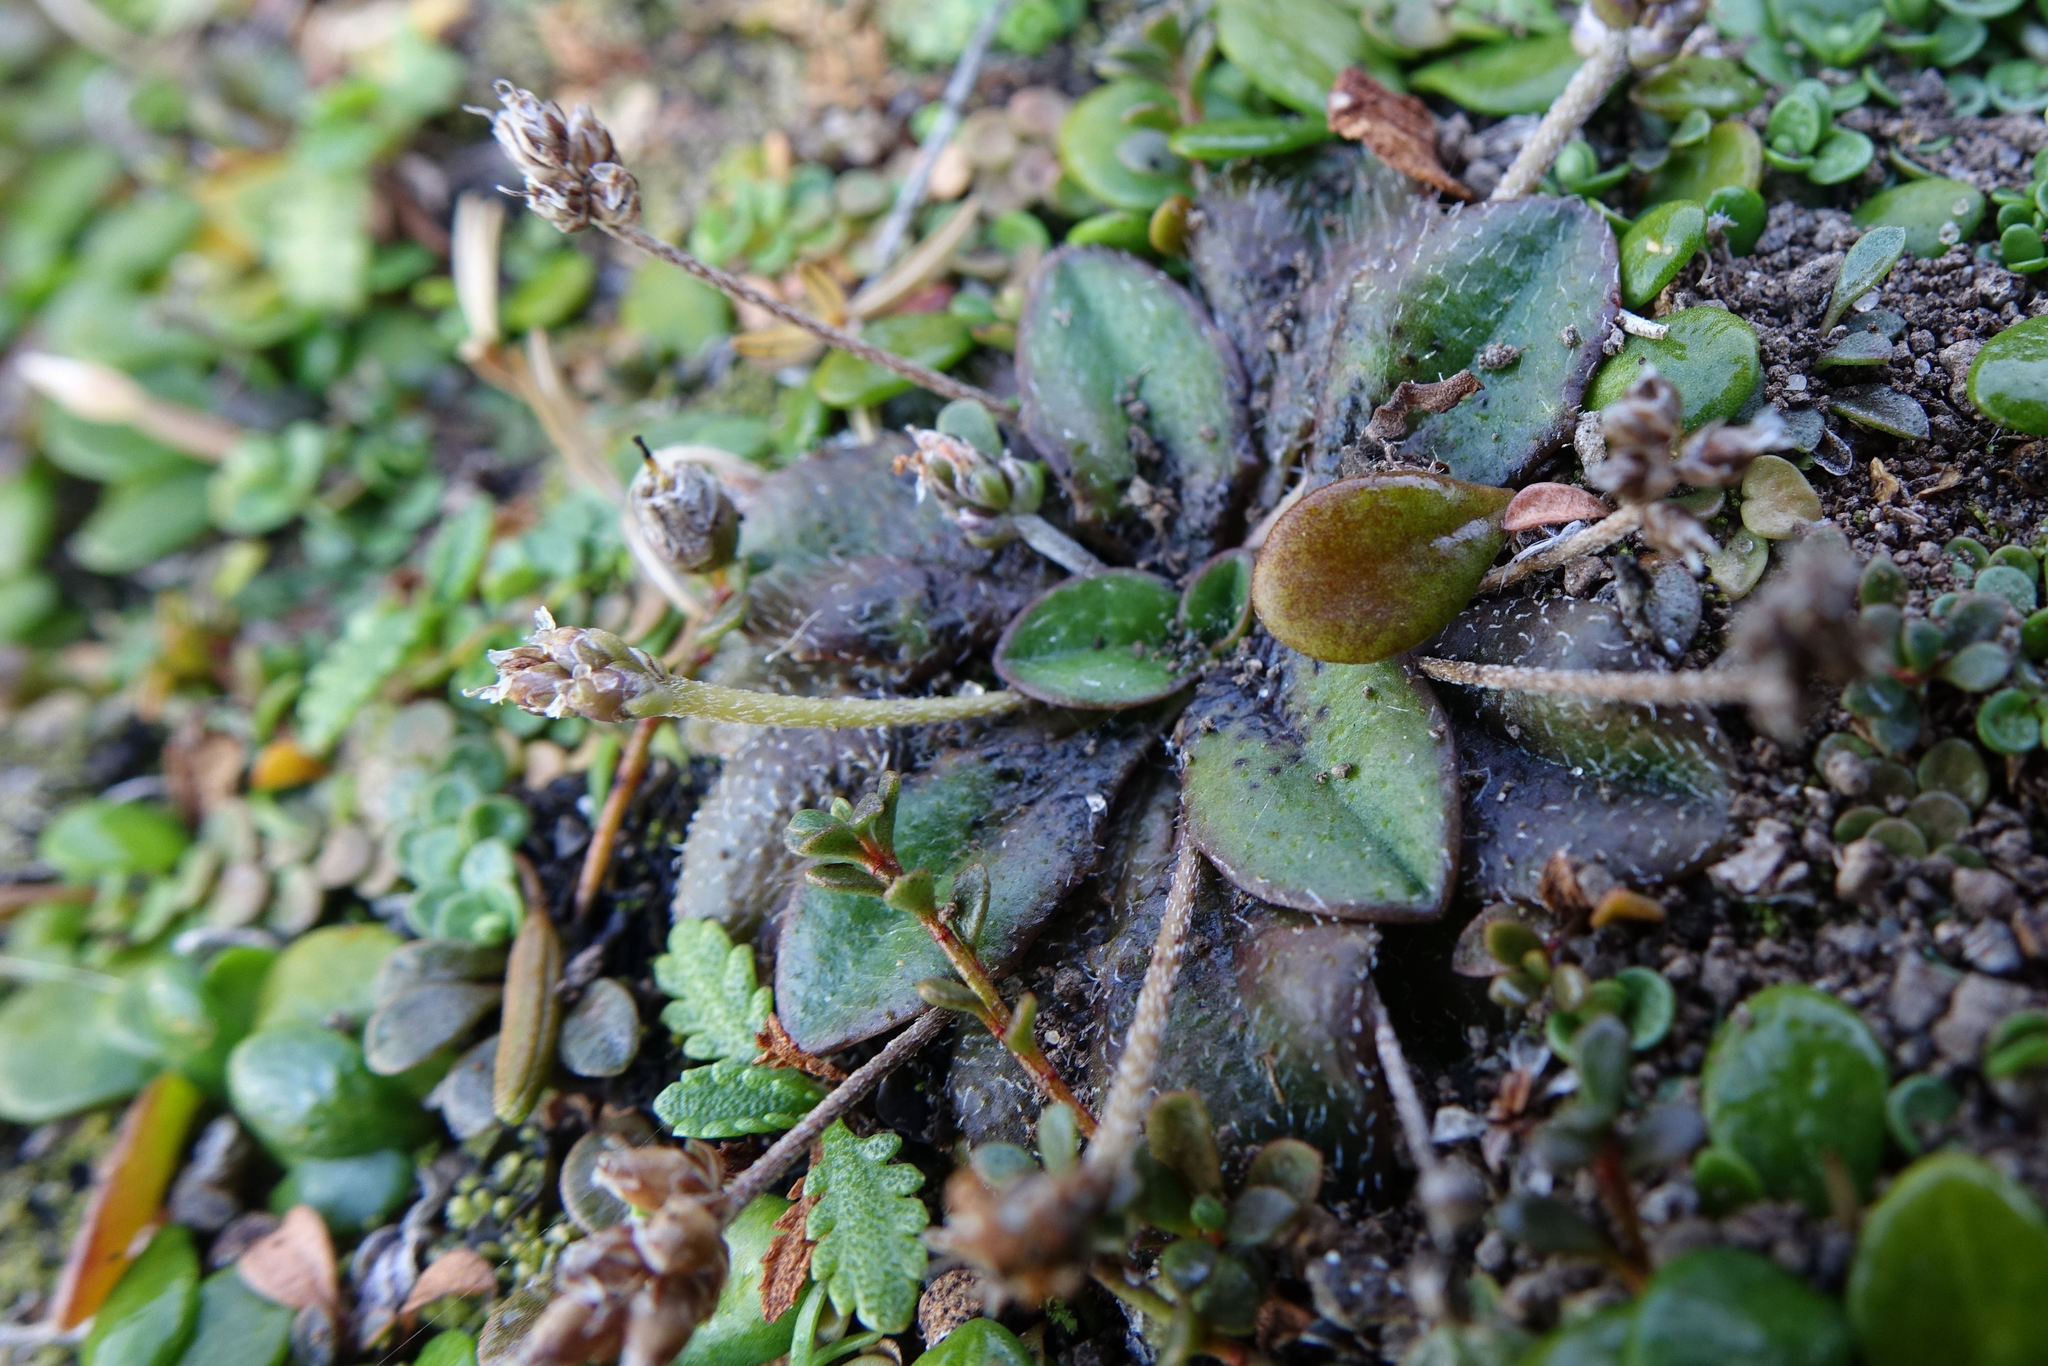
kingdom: Plantae
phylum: Tracheophyta
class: Magnoliopsida
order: Lamiales
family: Plantaginaceae
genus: Plantago
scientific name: Plantago raoulii
